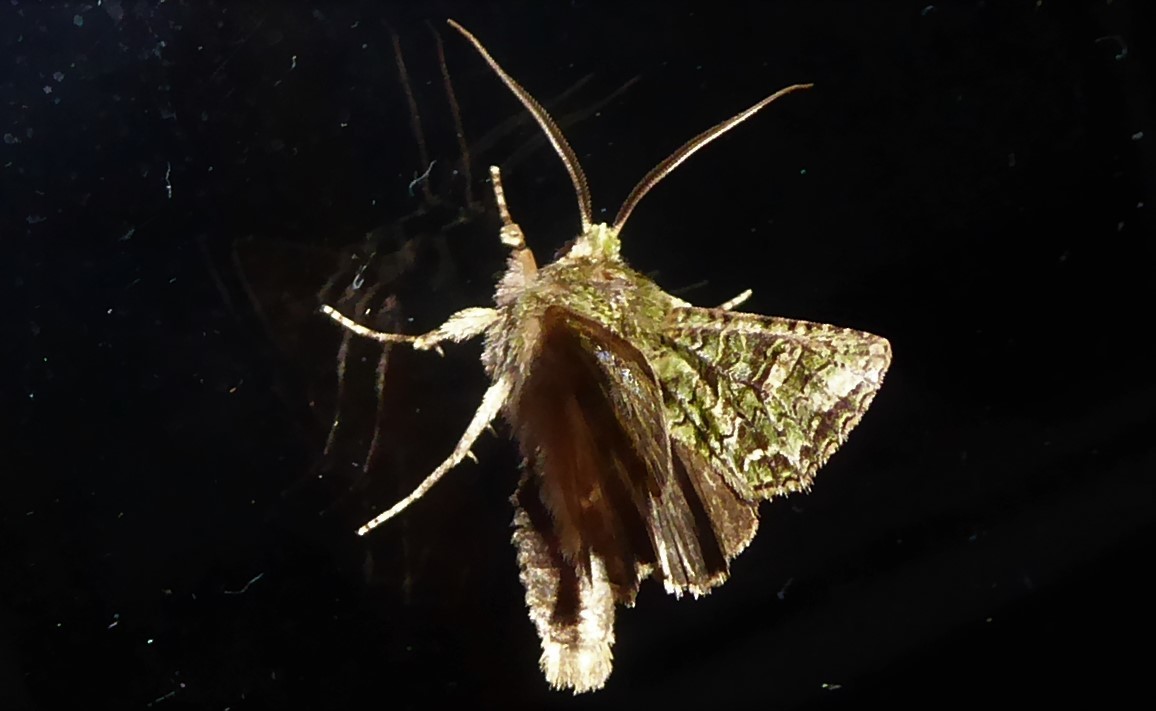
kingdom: Animalia
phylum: Arthropoda
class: Insecta
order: Lepidoptera
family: Noctuidae
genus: Ichneutica
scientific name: Ichneutica
